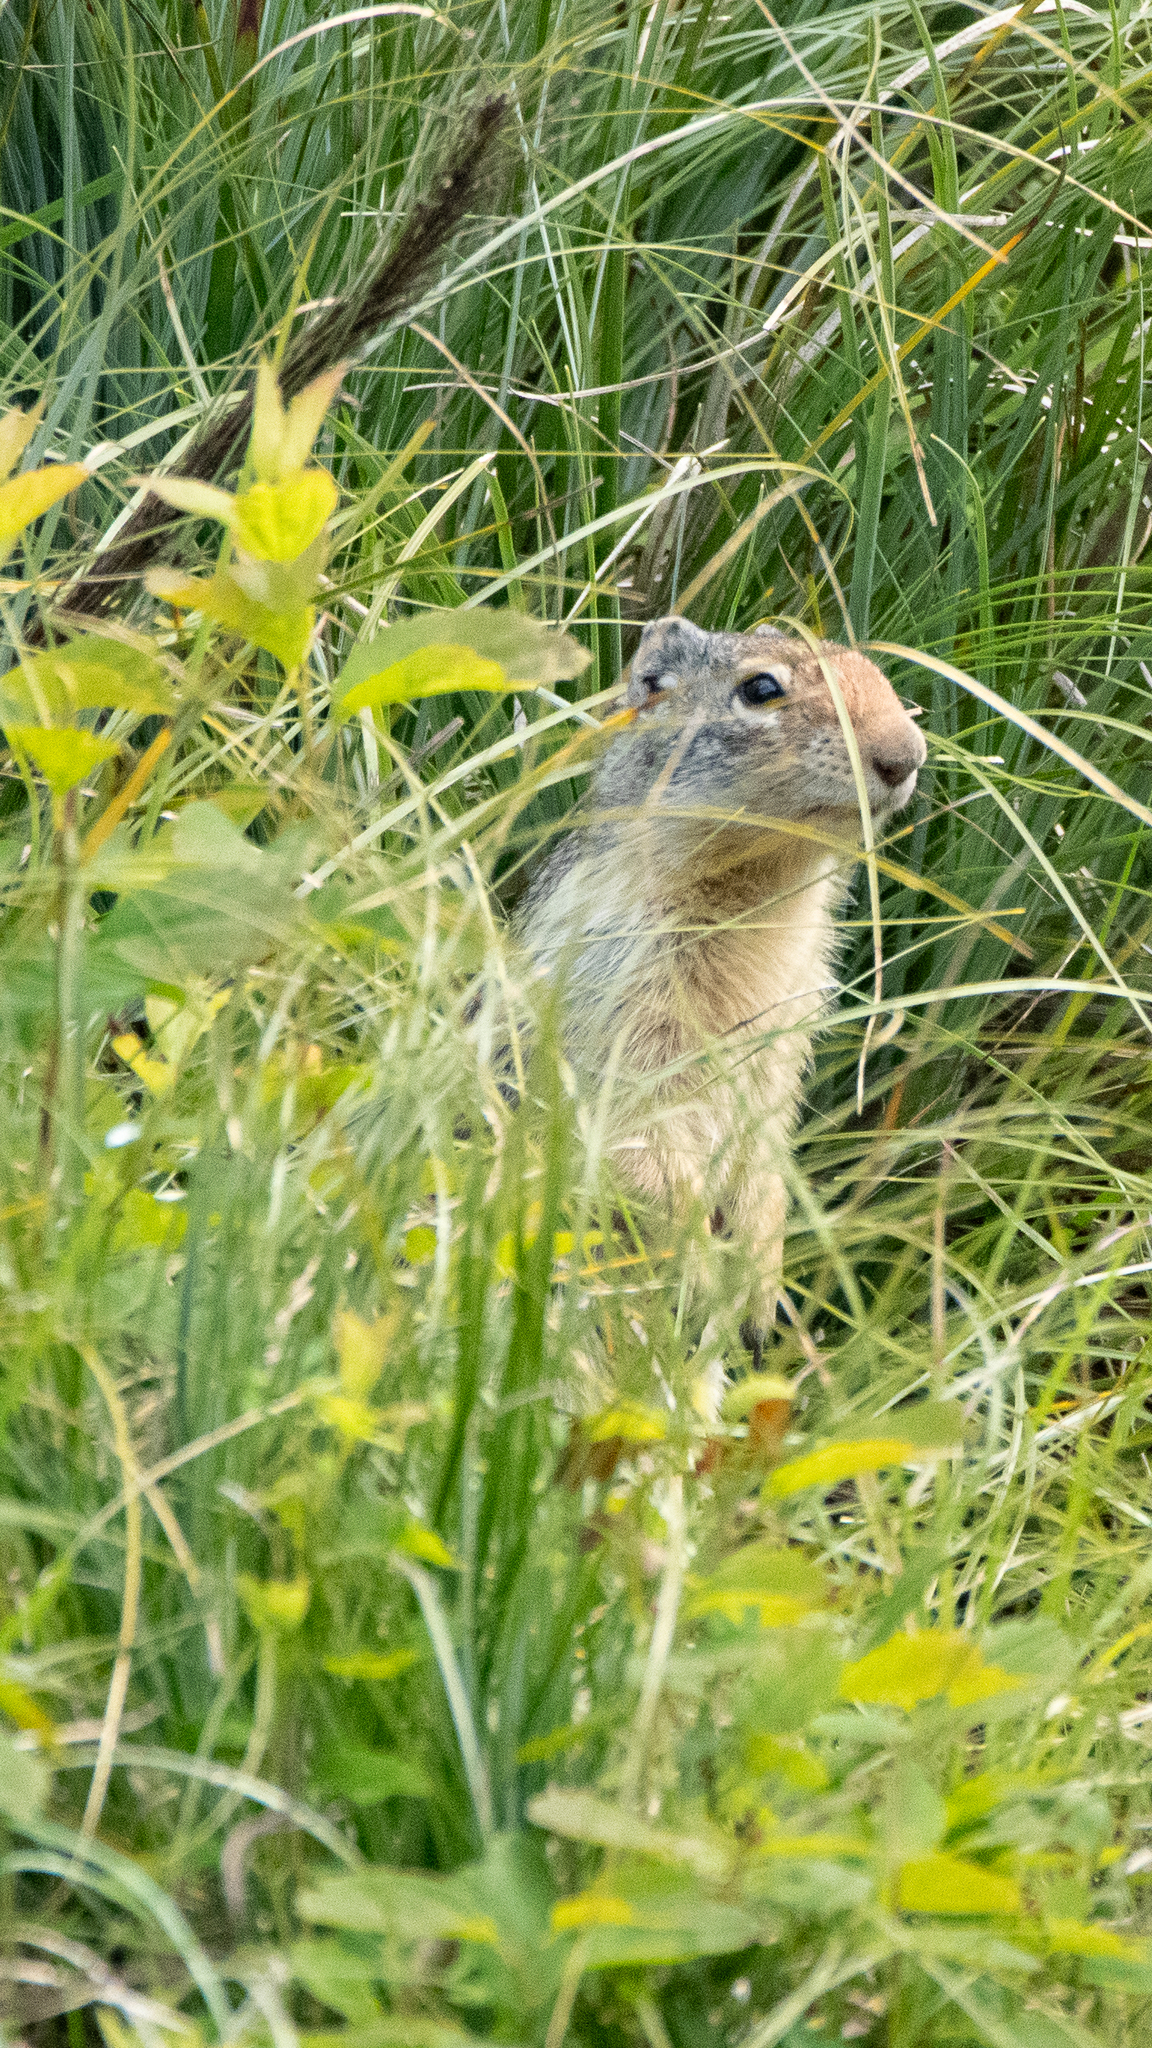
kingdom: Animalia
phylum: Chordata
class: Mammalia
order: Rodentia
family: Sciuridae
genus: Urocitellus
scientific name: Urocitellus columbianus
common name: Columbian ground squirrel
